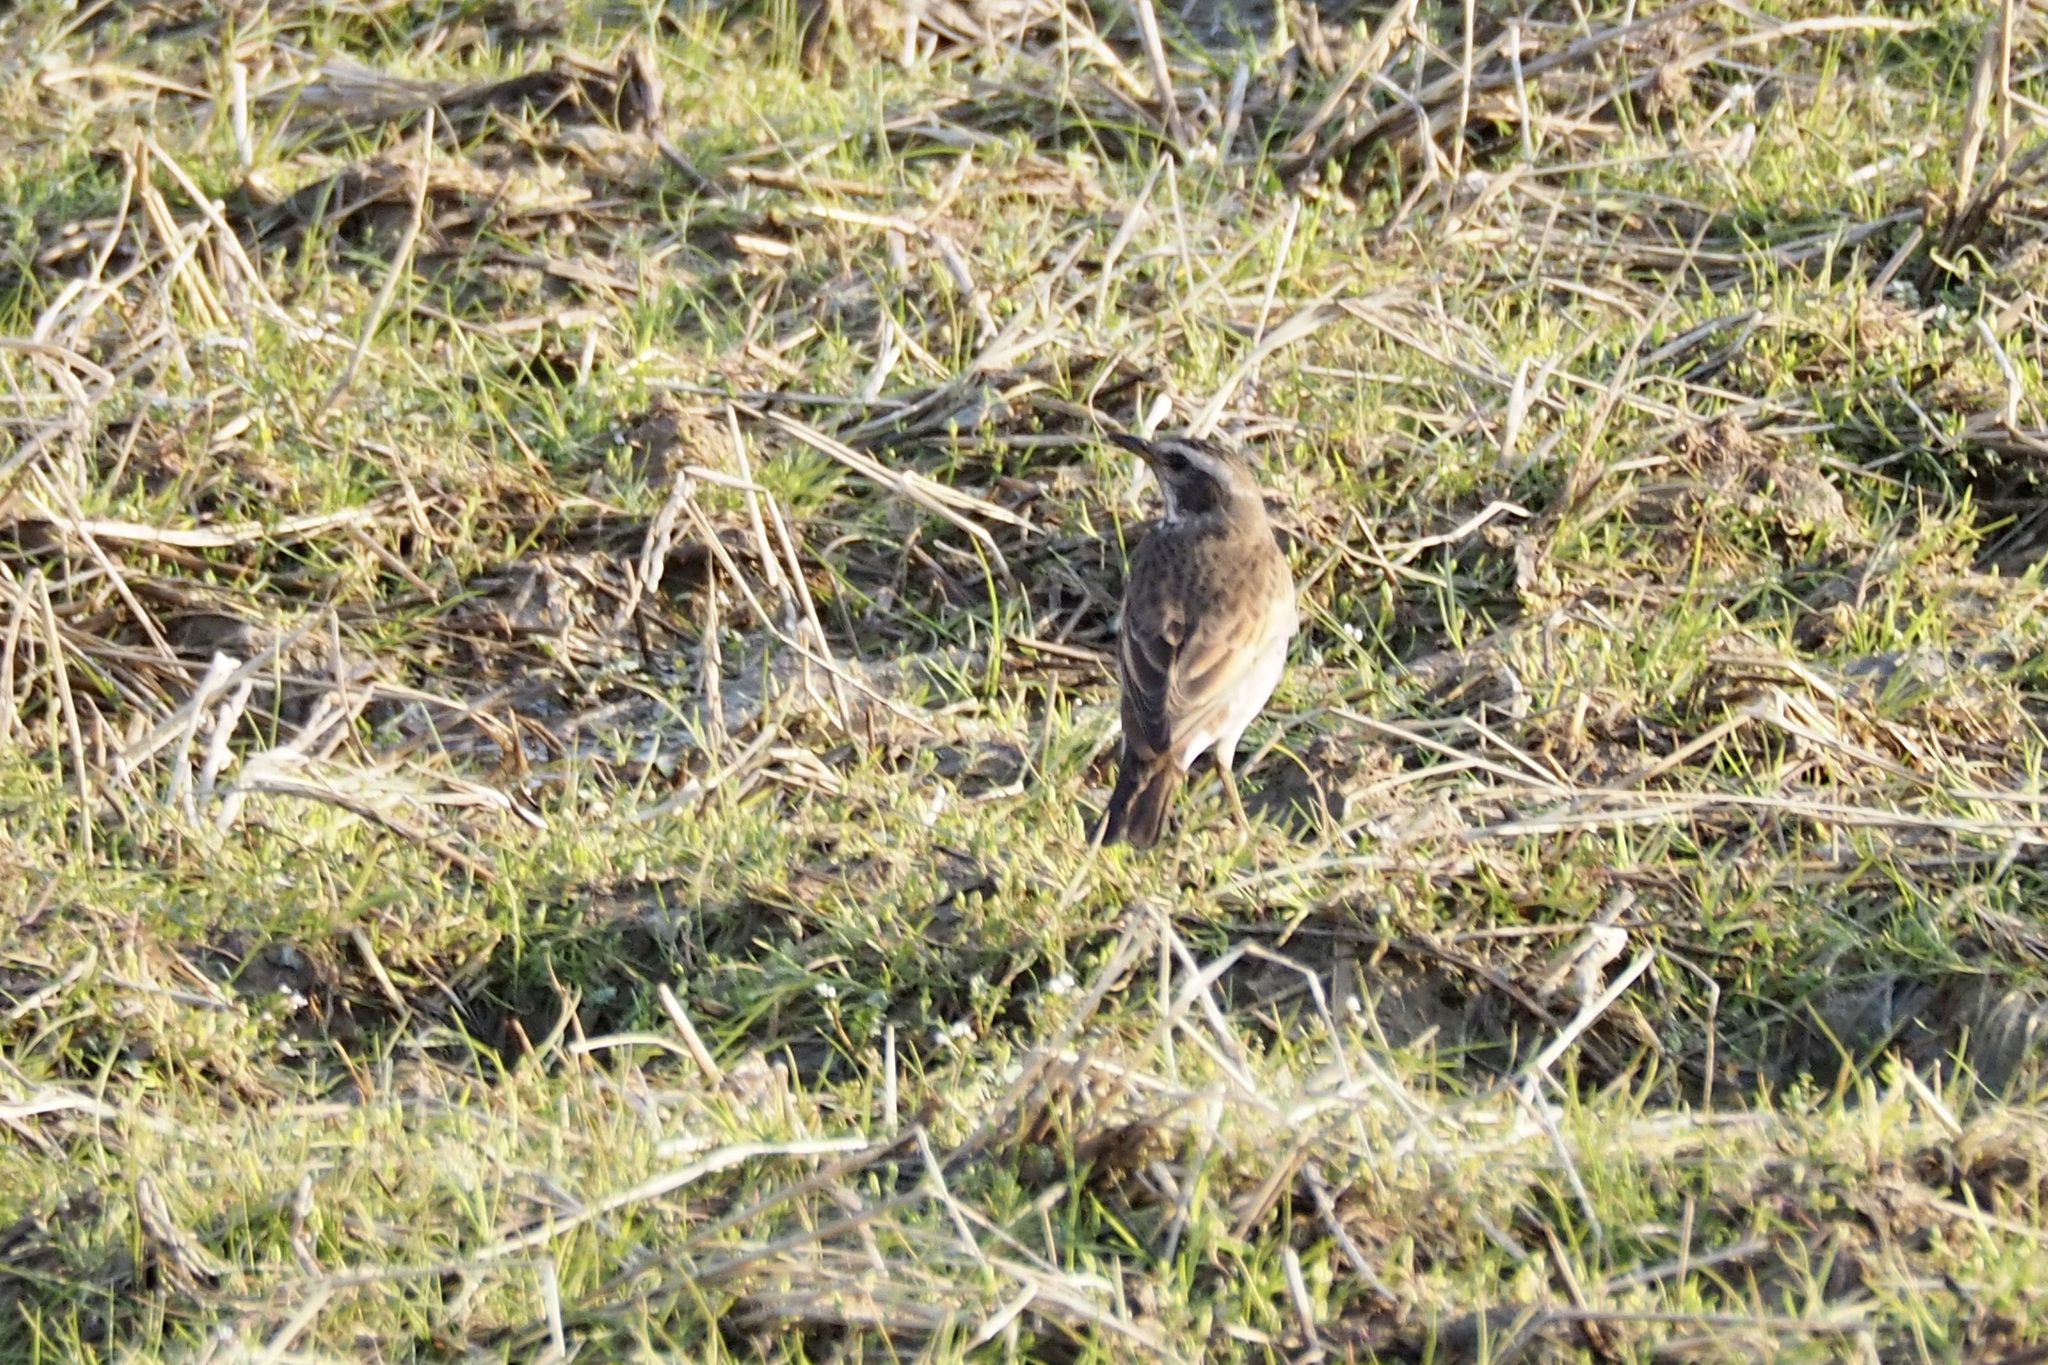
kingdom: Animalia
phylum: Chordata
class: Aves
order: Passeriformes
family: Turdidae
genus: Turdus
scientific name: Turdus eunomus
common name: Dusky thrush
